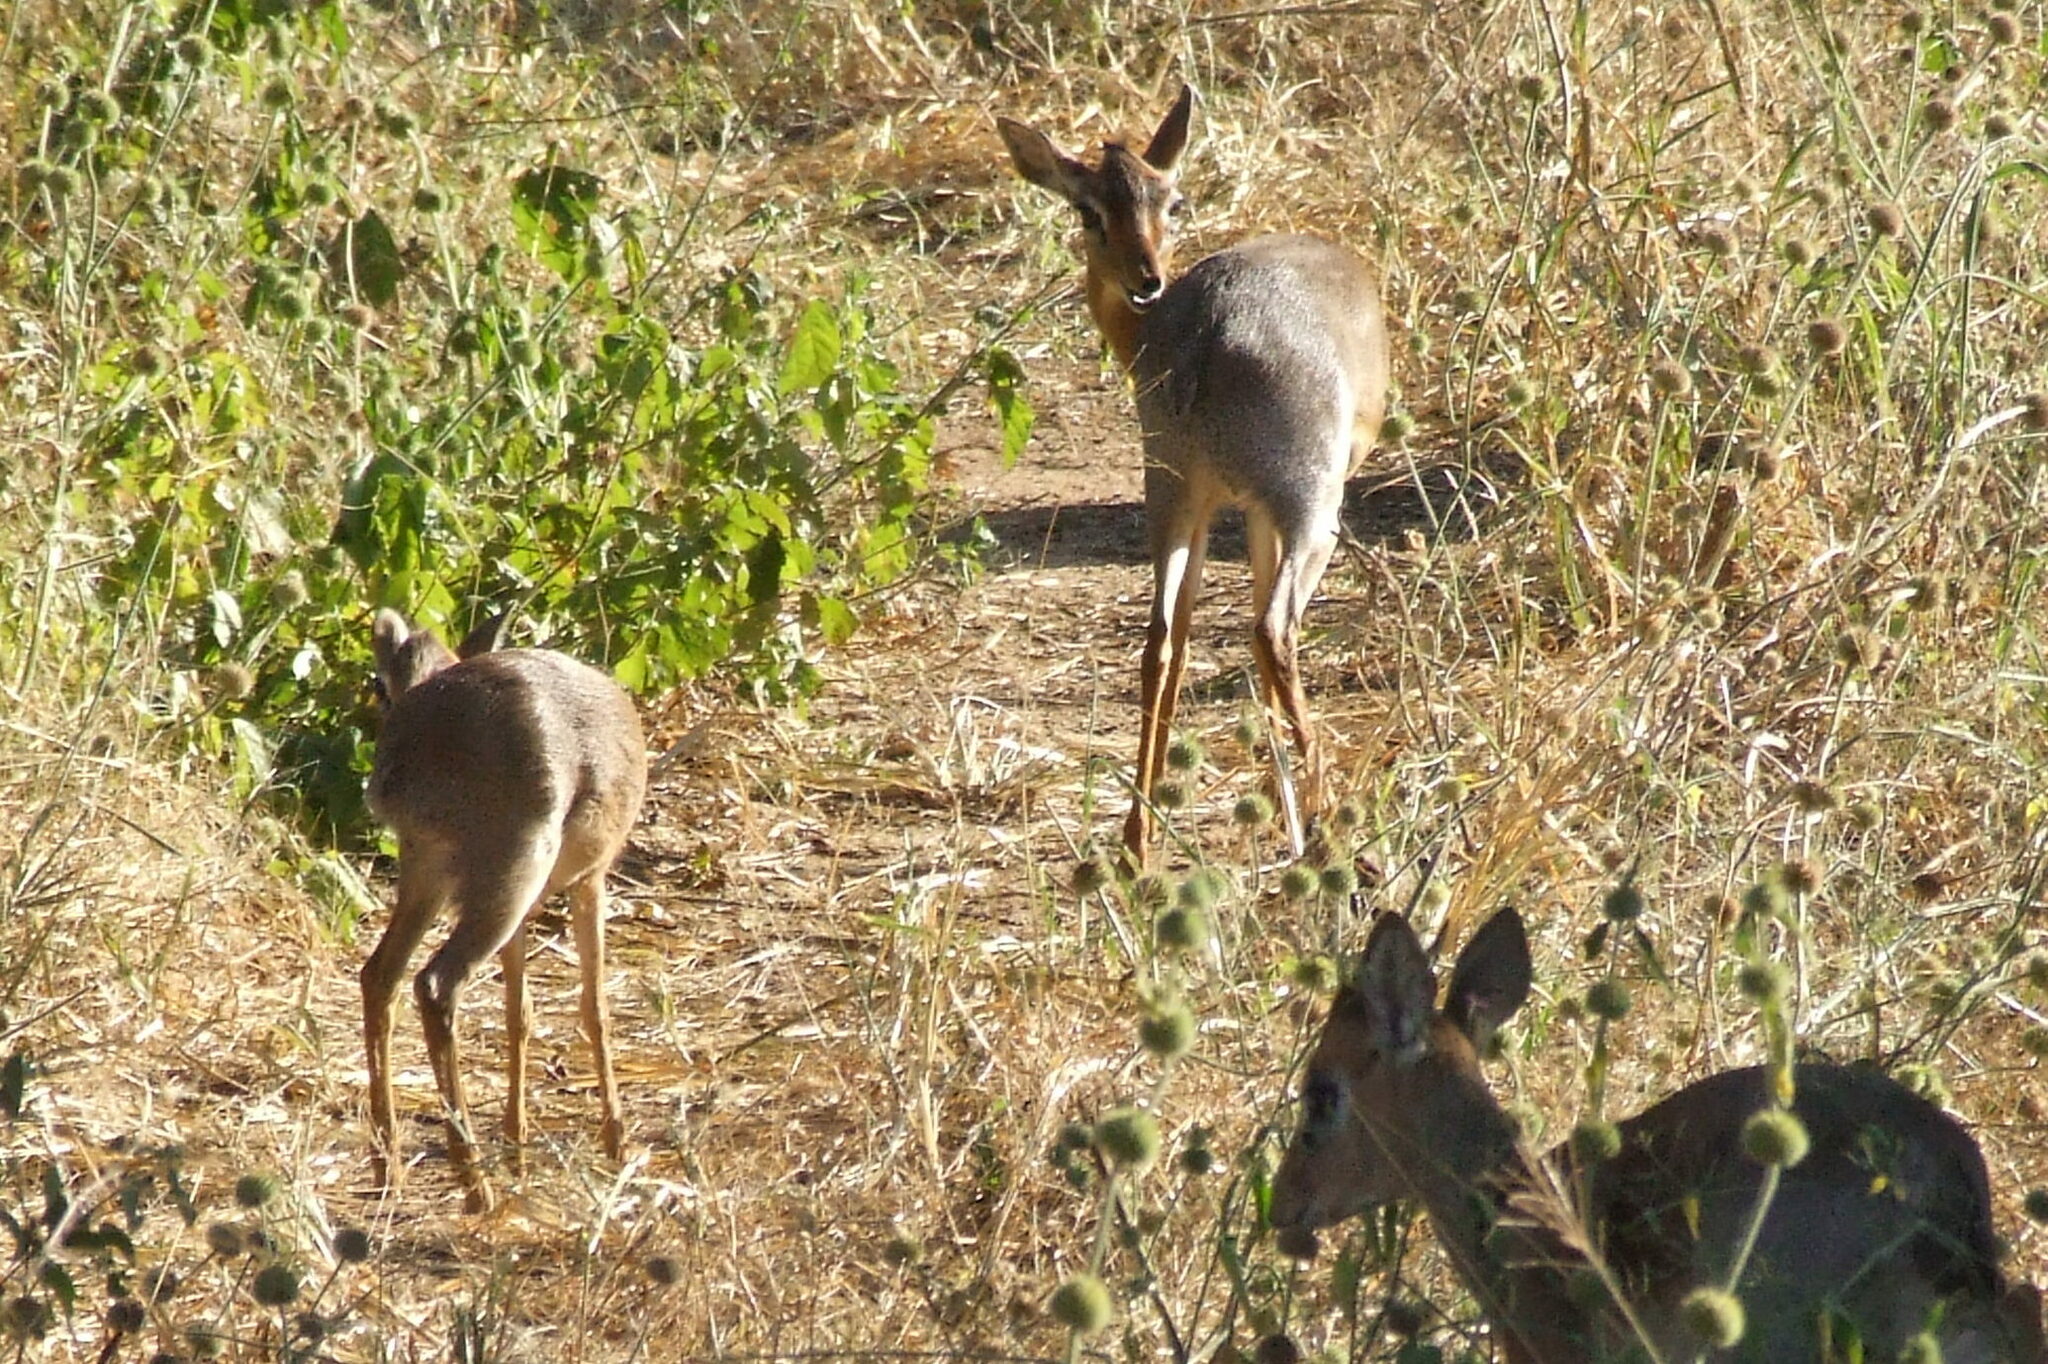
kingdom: Animalia
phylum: Chordata
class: Mammalia
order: Artiodactyla
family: Bovidae
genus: Madoqua
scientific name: Madoqua
